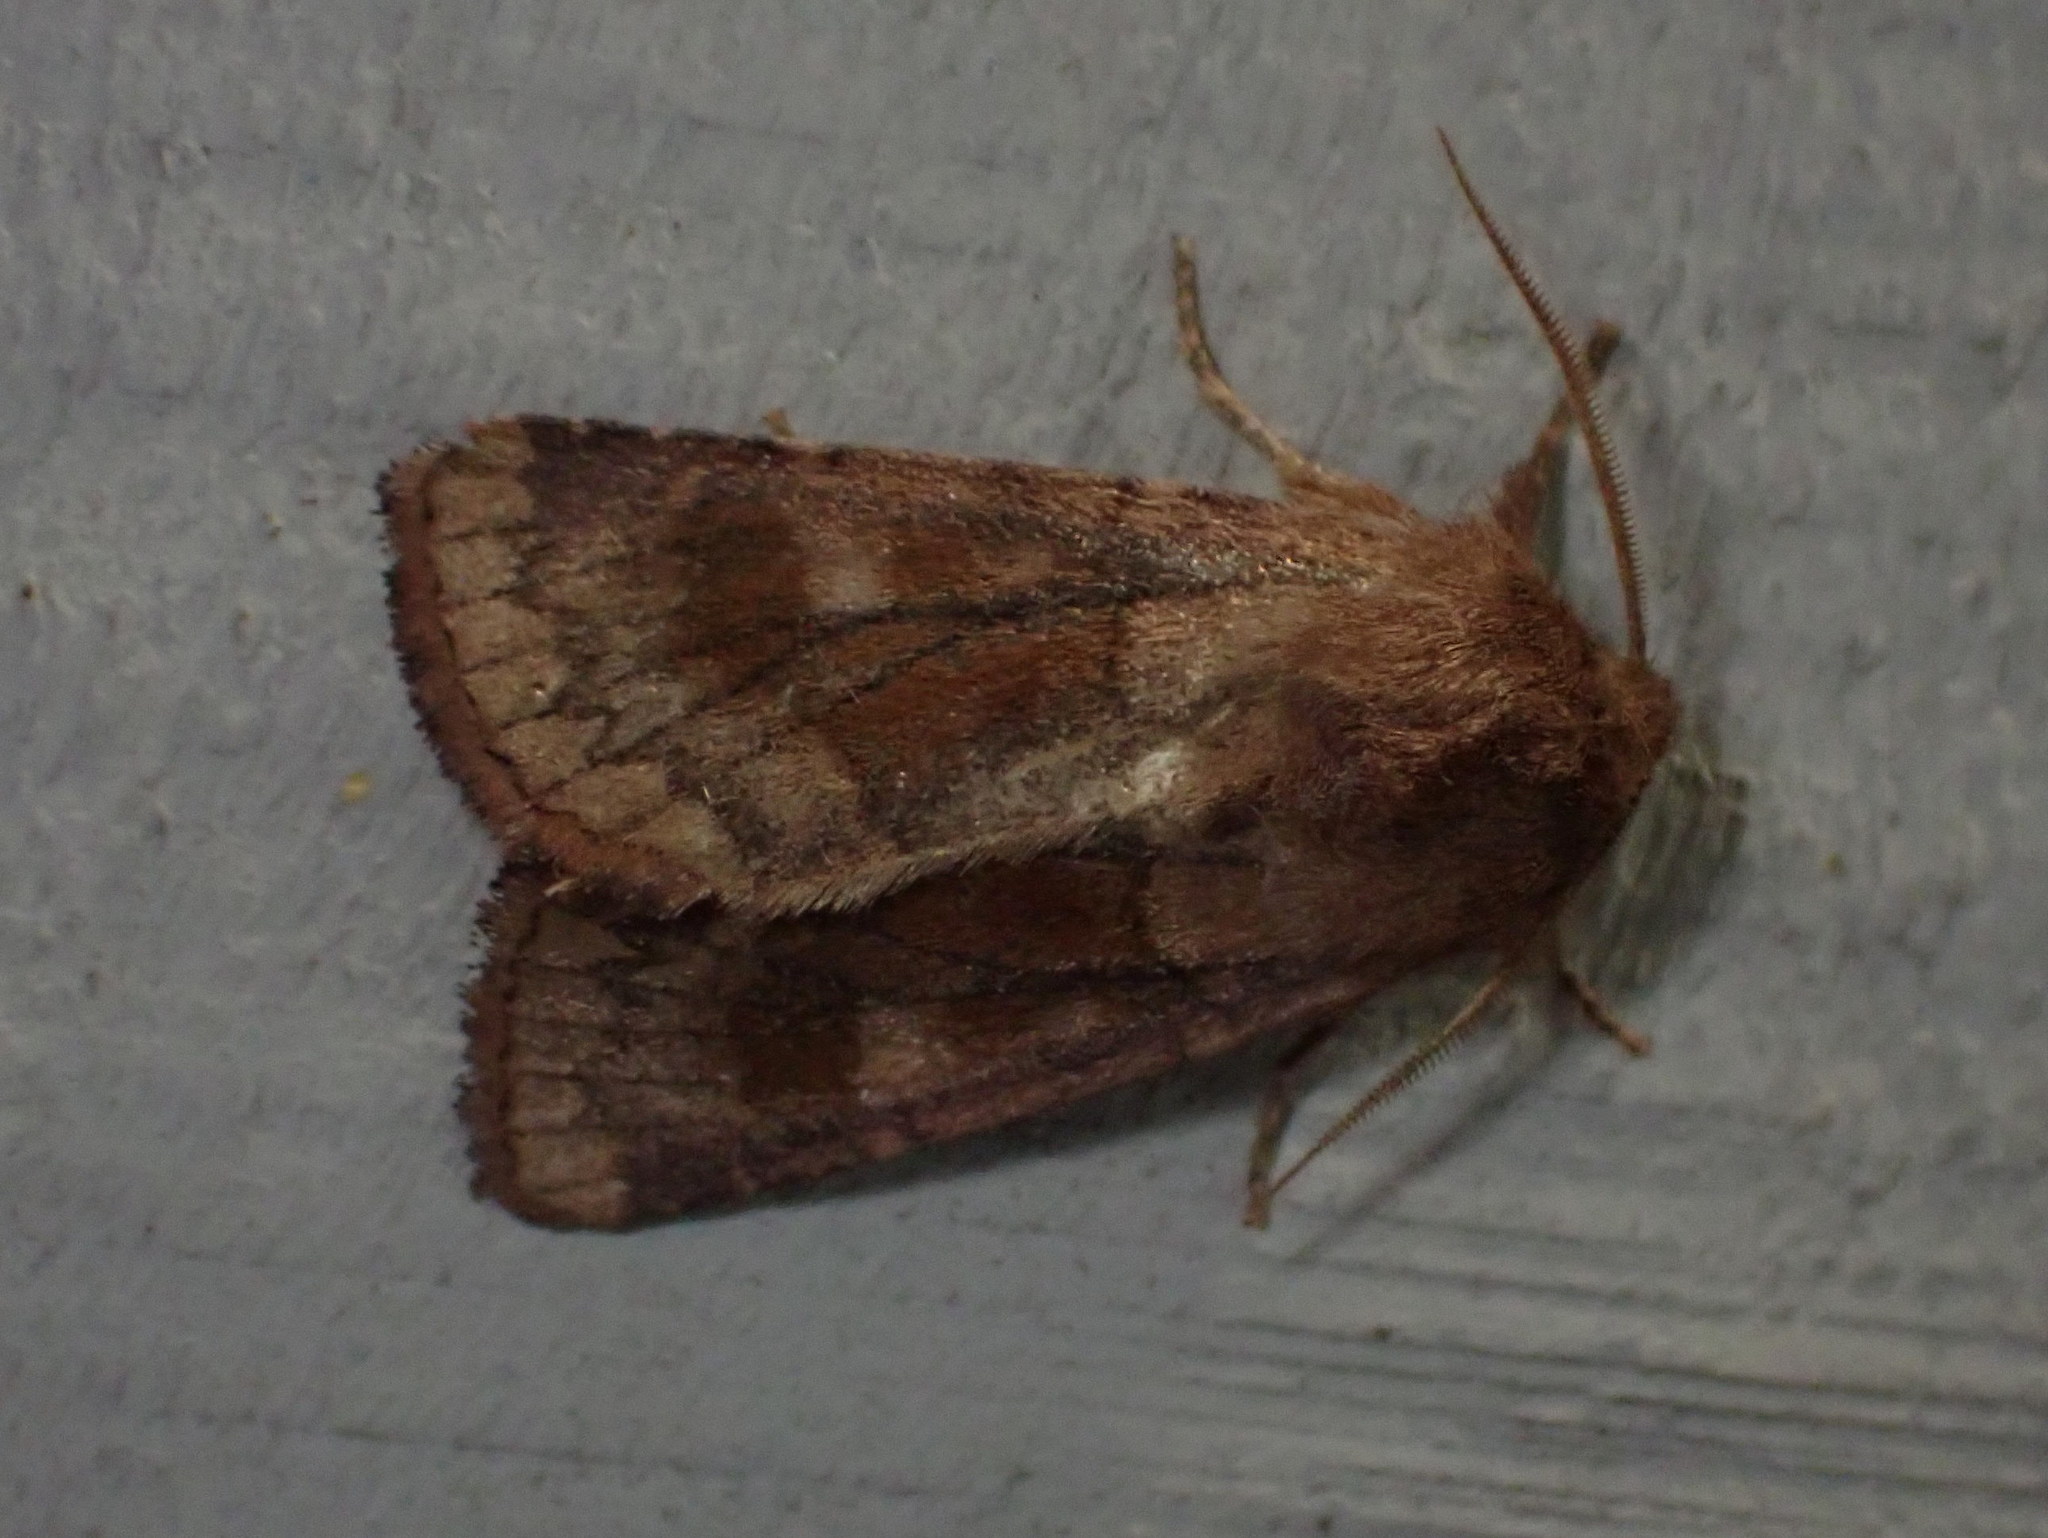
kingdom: Animalia
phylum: Arthropoda
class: Insecta
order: Lepidoptera
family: Noctuidae
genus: Nephelodes
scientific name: Nephelodes minians
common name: Bronzed cutworm
